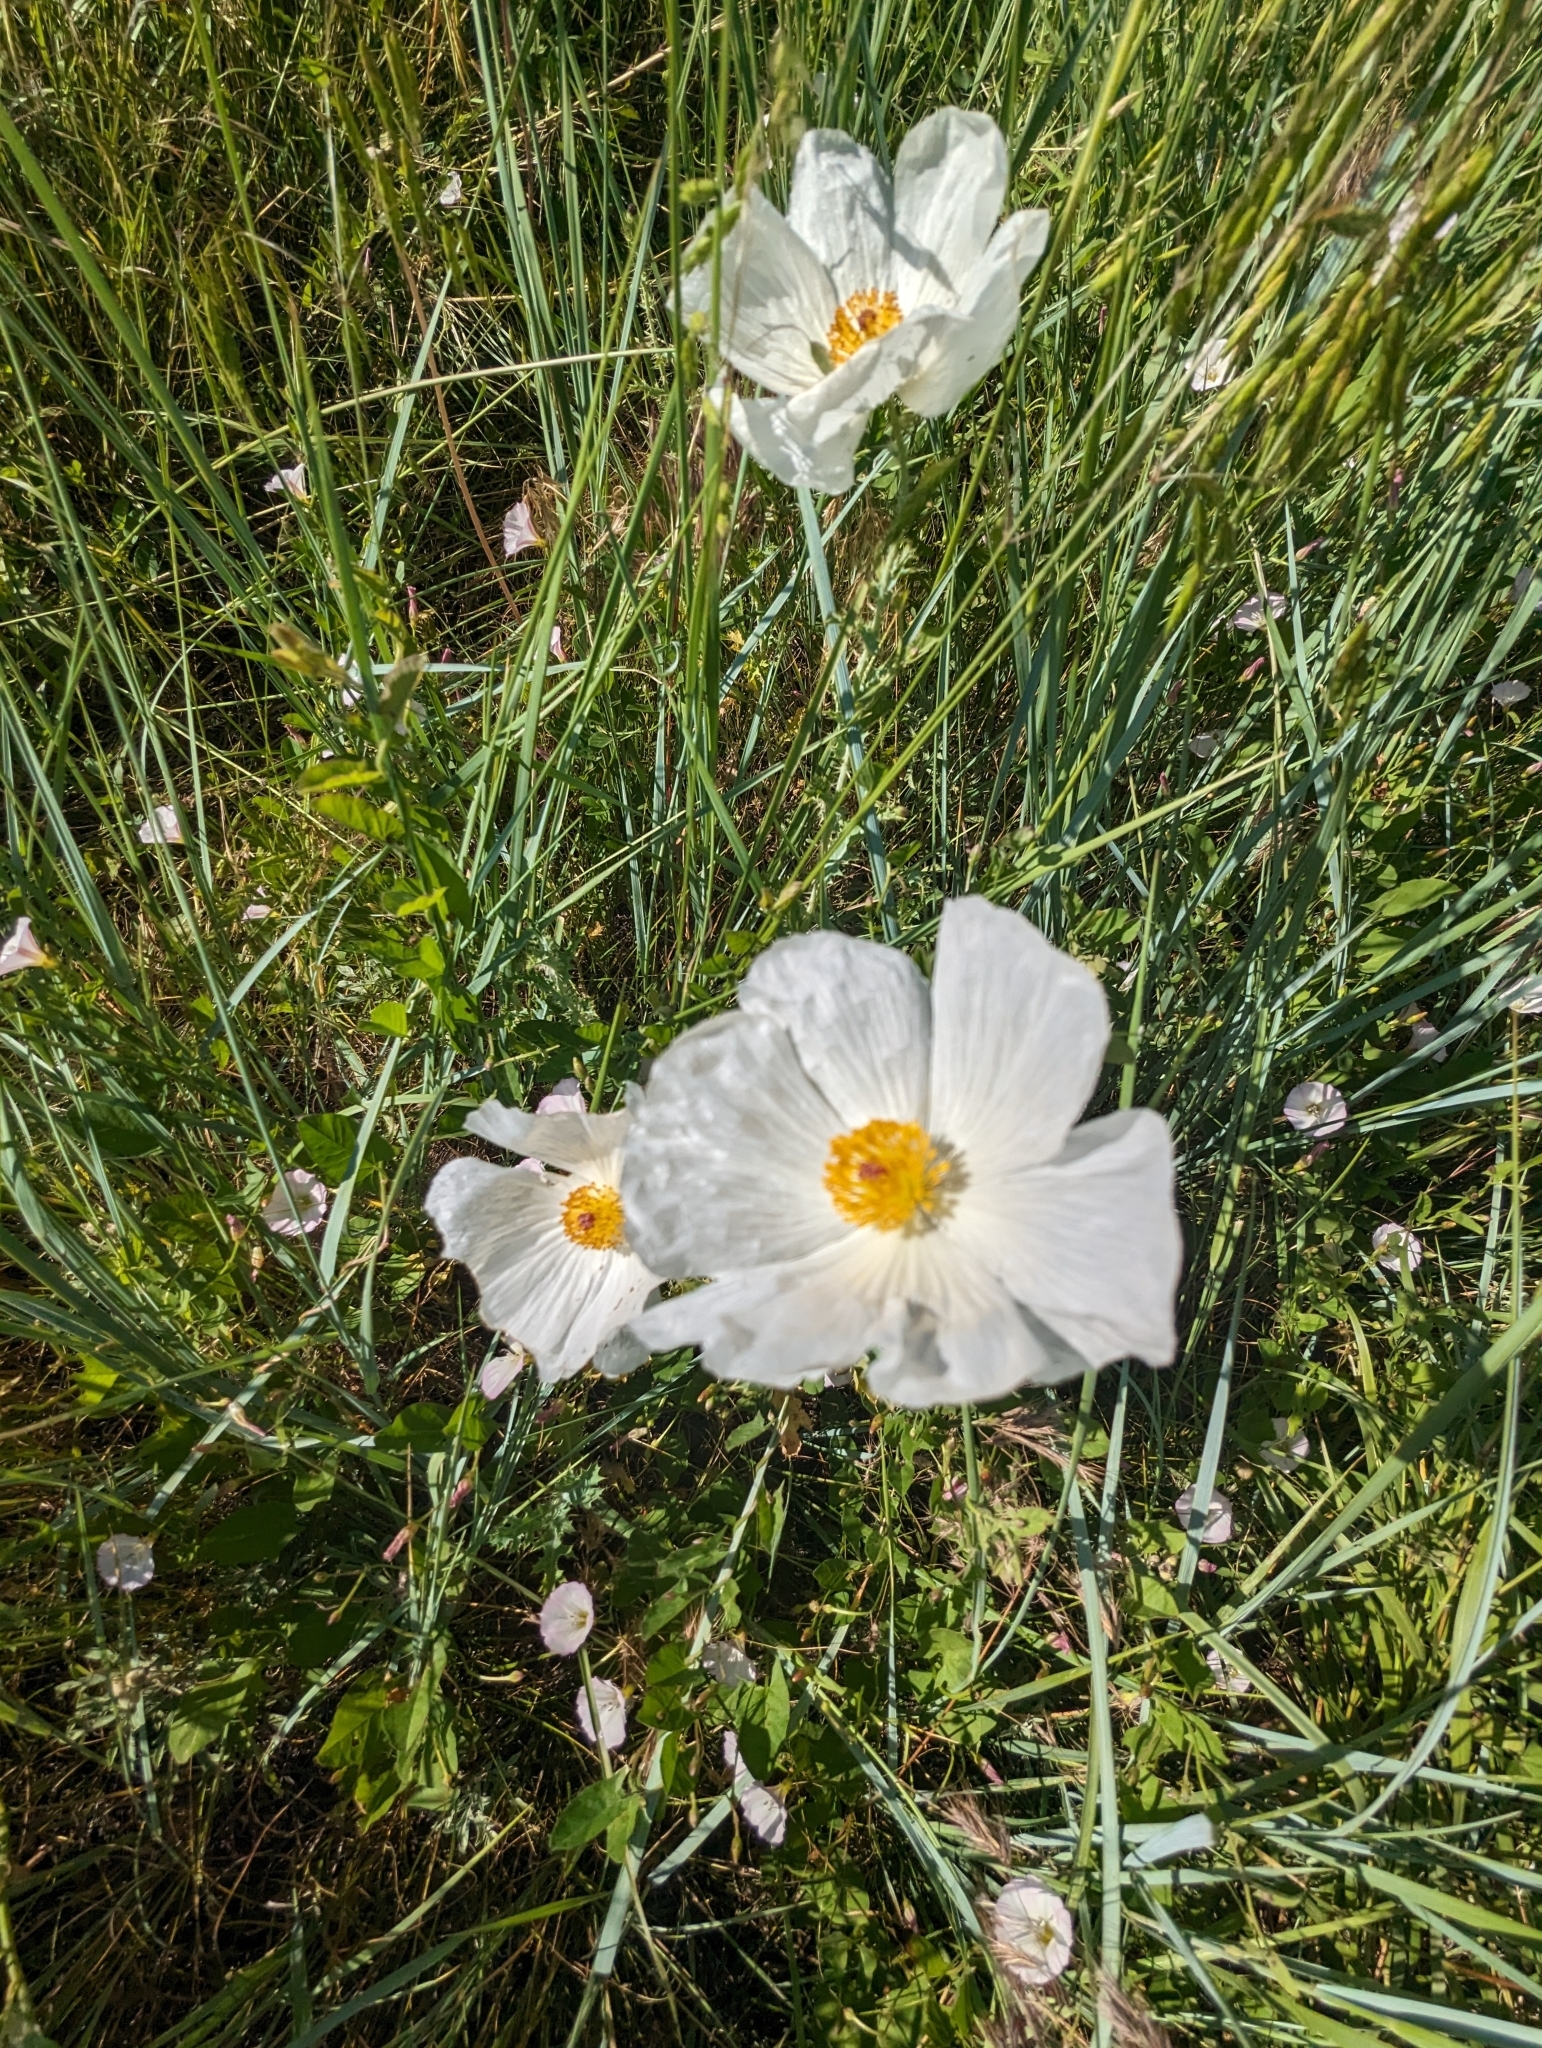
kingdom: Plantae
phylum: Tracheophyta
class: Magnoliopsida
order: Ranunculales
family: Papaveraceae
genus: Argemone
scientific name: Argemone polyanthemos
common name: Plains prickly-poppy
